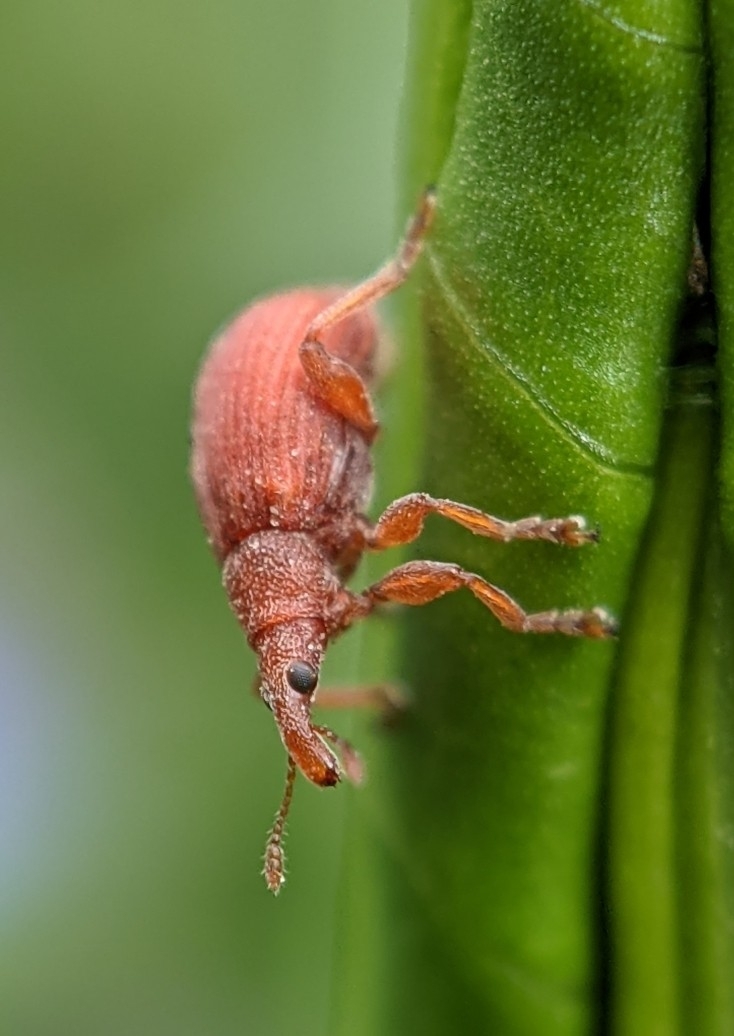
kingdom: Animalia
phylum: Arthropoda
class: Insecta
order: Coleoptera
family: Apionidae
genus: Apion
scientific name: Apion frumentarium
